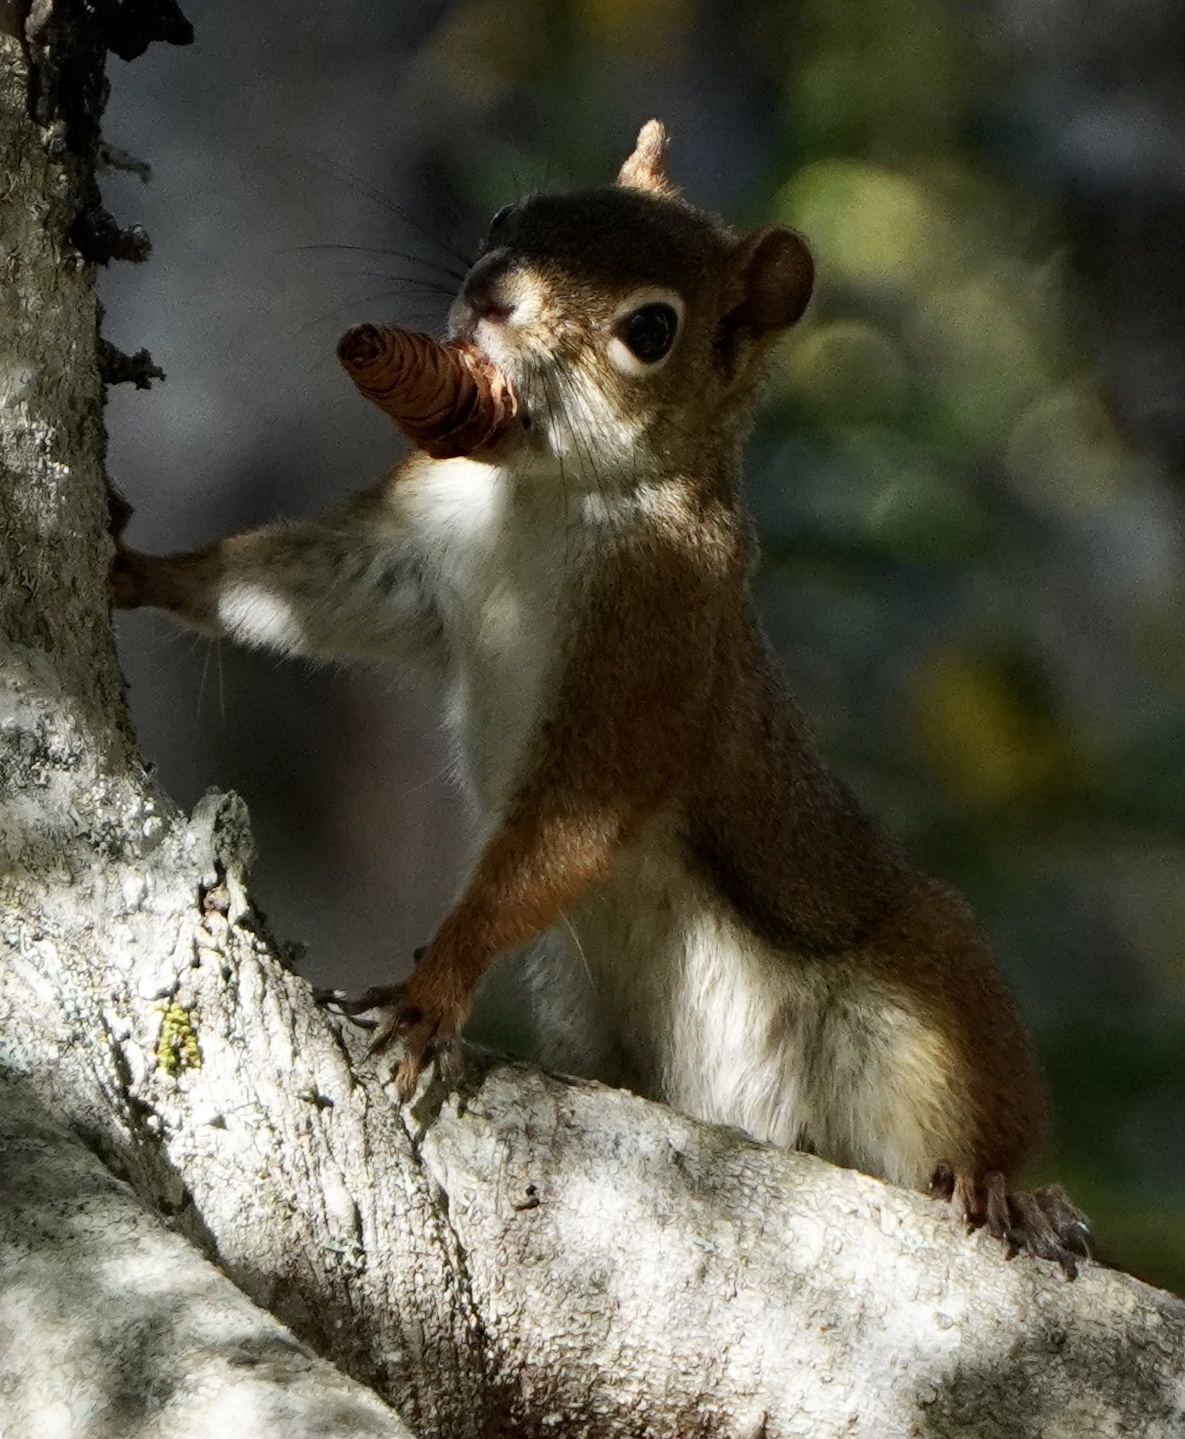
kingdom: Animalia
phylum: Chordata
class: Mammalia
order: Rodentia
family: Sciuridae
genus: Tamiasciurus
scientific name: Tamiasciurus hudsonicus
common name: Red squirrel
